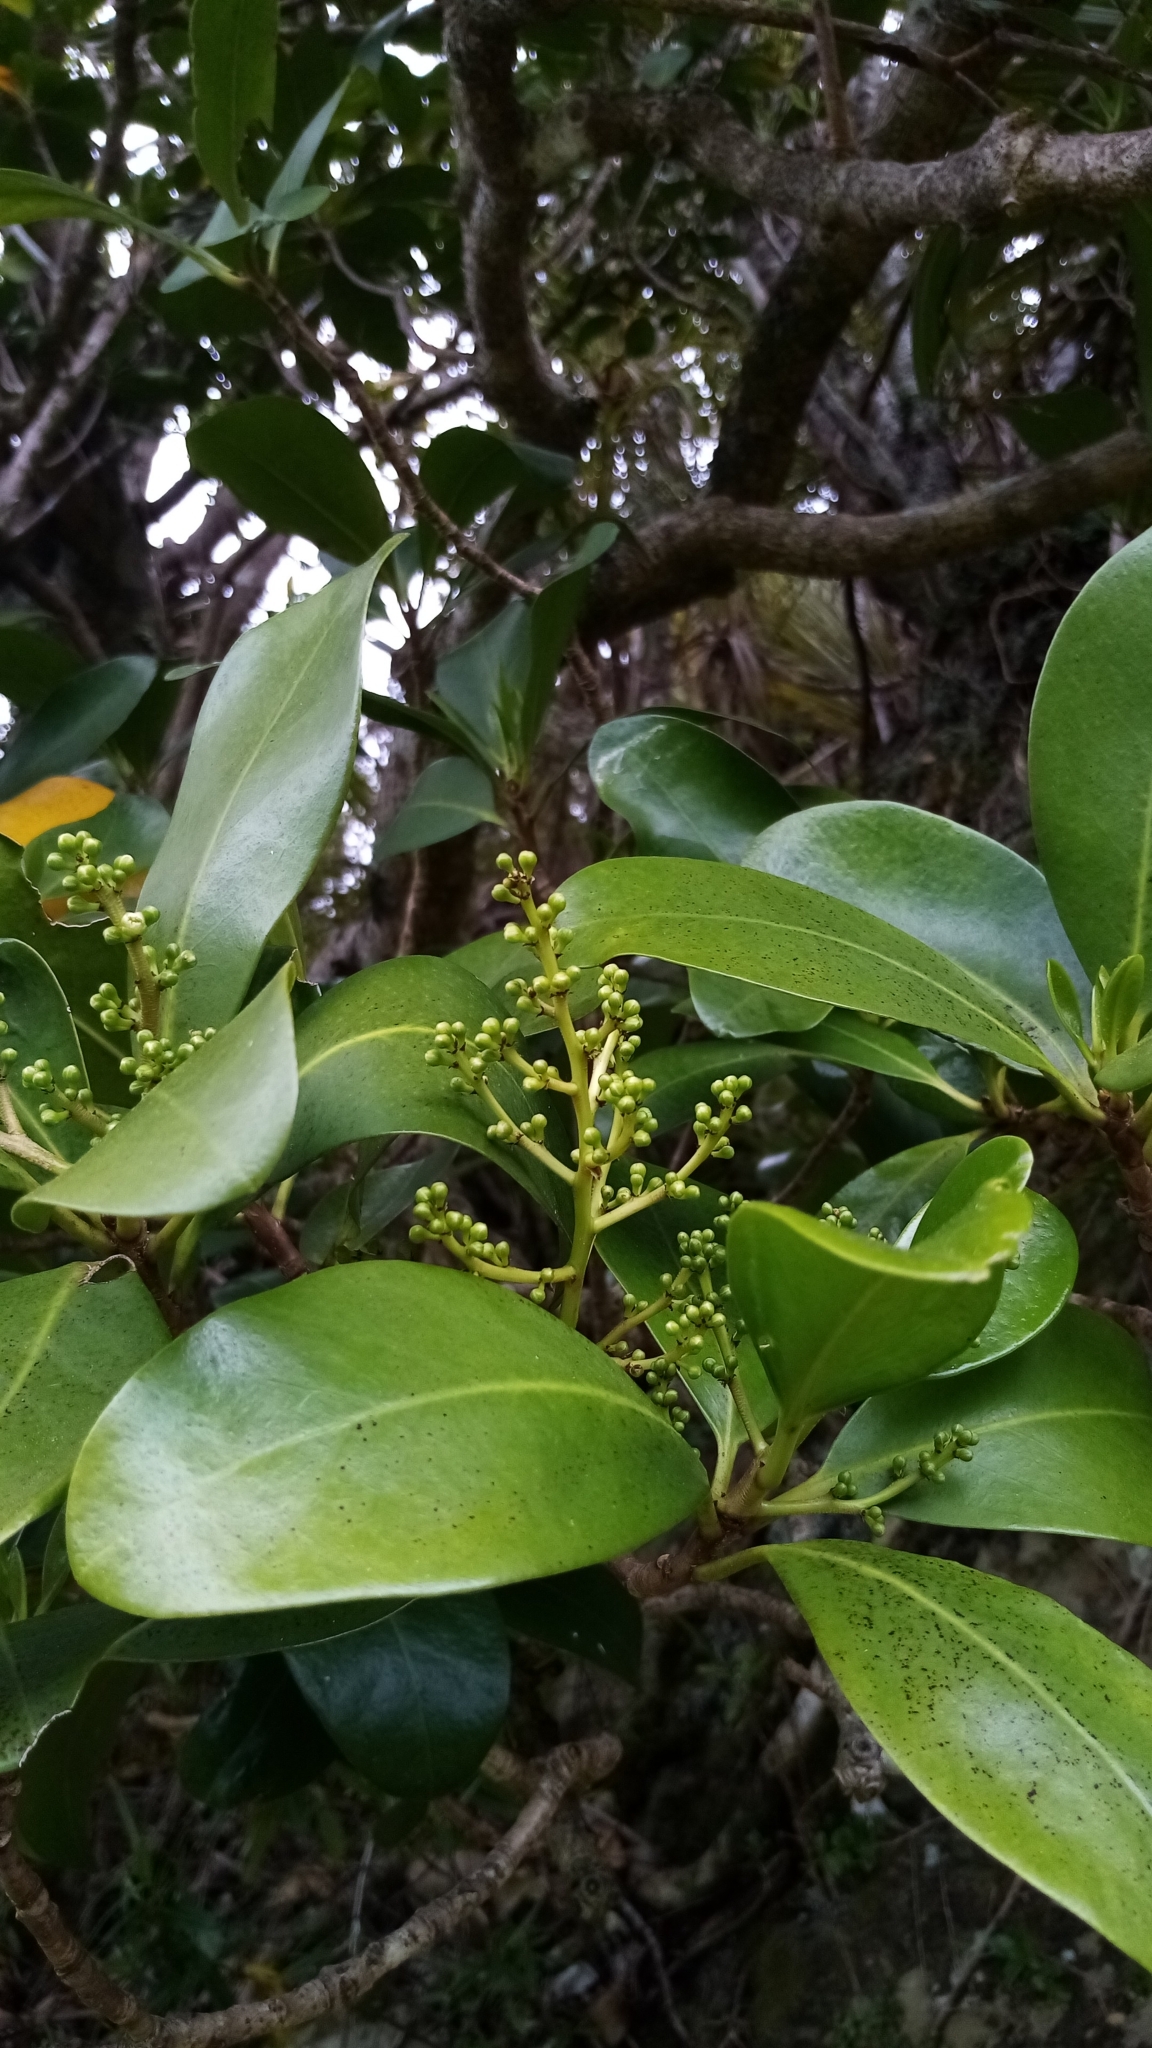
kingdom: Plantae
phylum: Tracheophyta
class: Magnoliopsida
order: Cucurbitales
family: Corynocarpaceae
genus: Corynocarpus
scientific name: Corynocarpus laevigatus
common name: New zealand laurel
